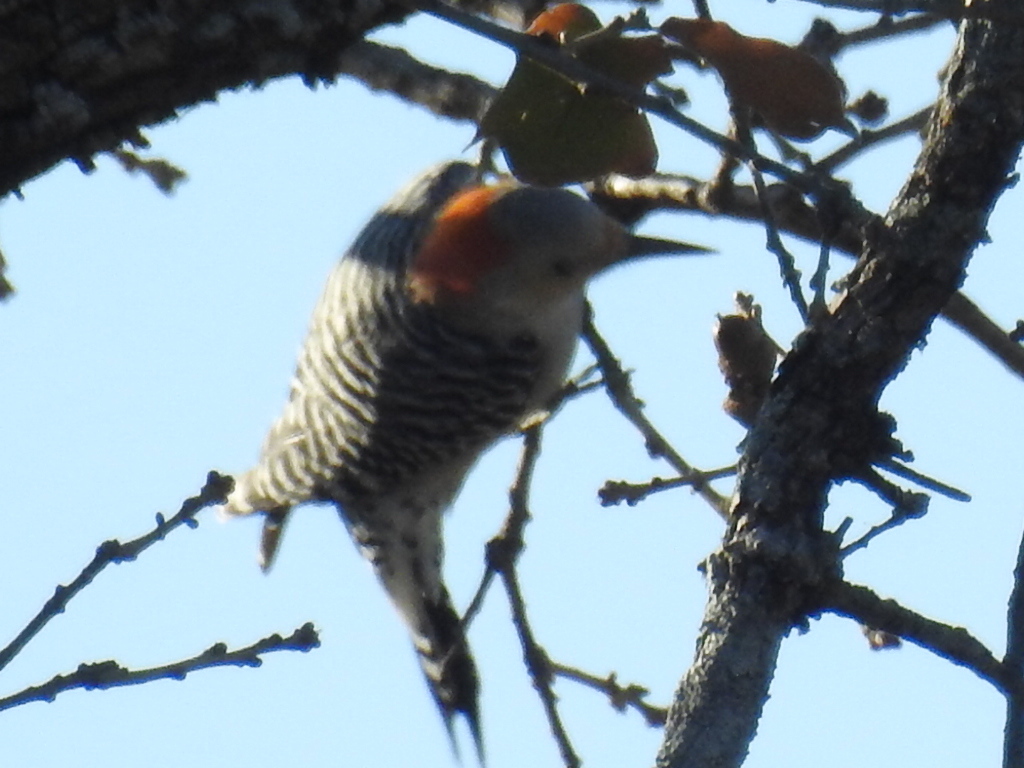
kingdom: Animalia
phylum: Chordata
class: Aves
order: Piciformes
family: Picidae
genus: Melanerpes
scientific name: Melanerpes carolinus
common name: Red-bellied woodpecker
